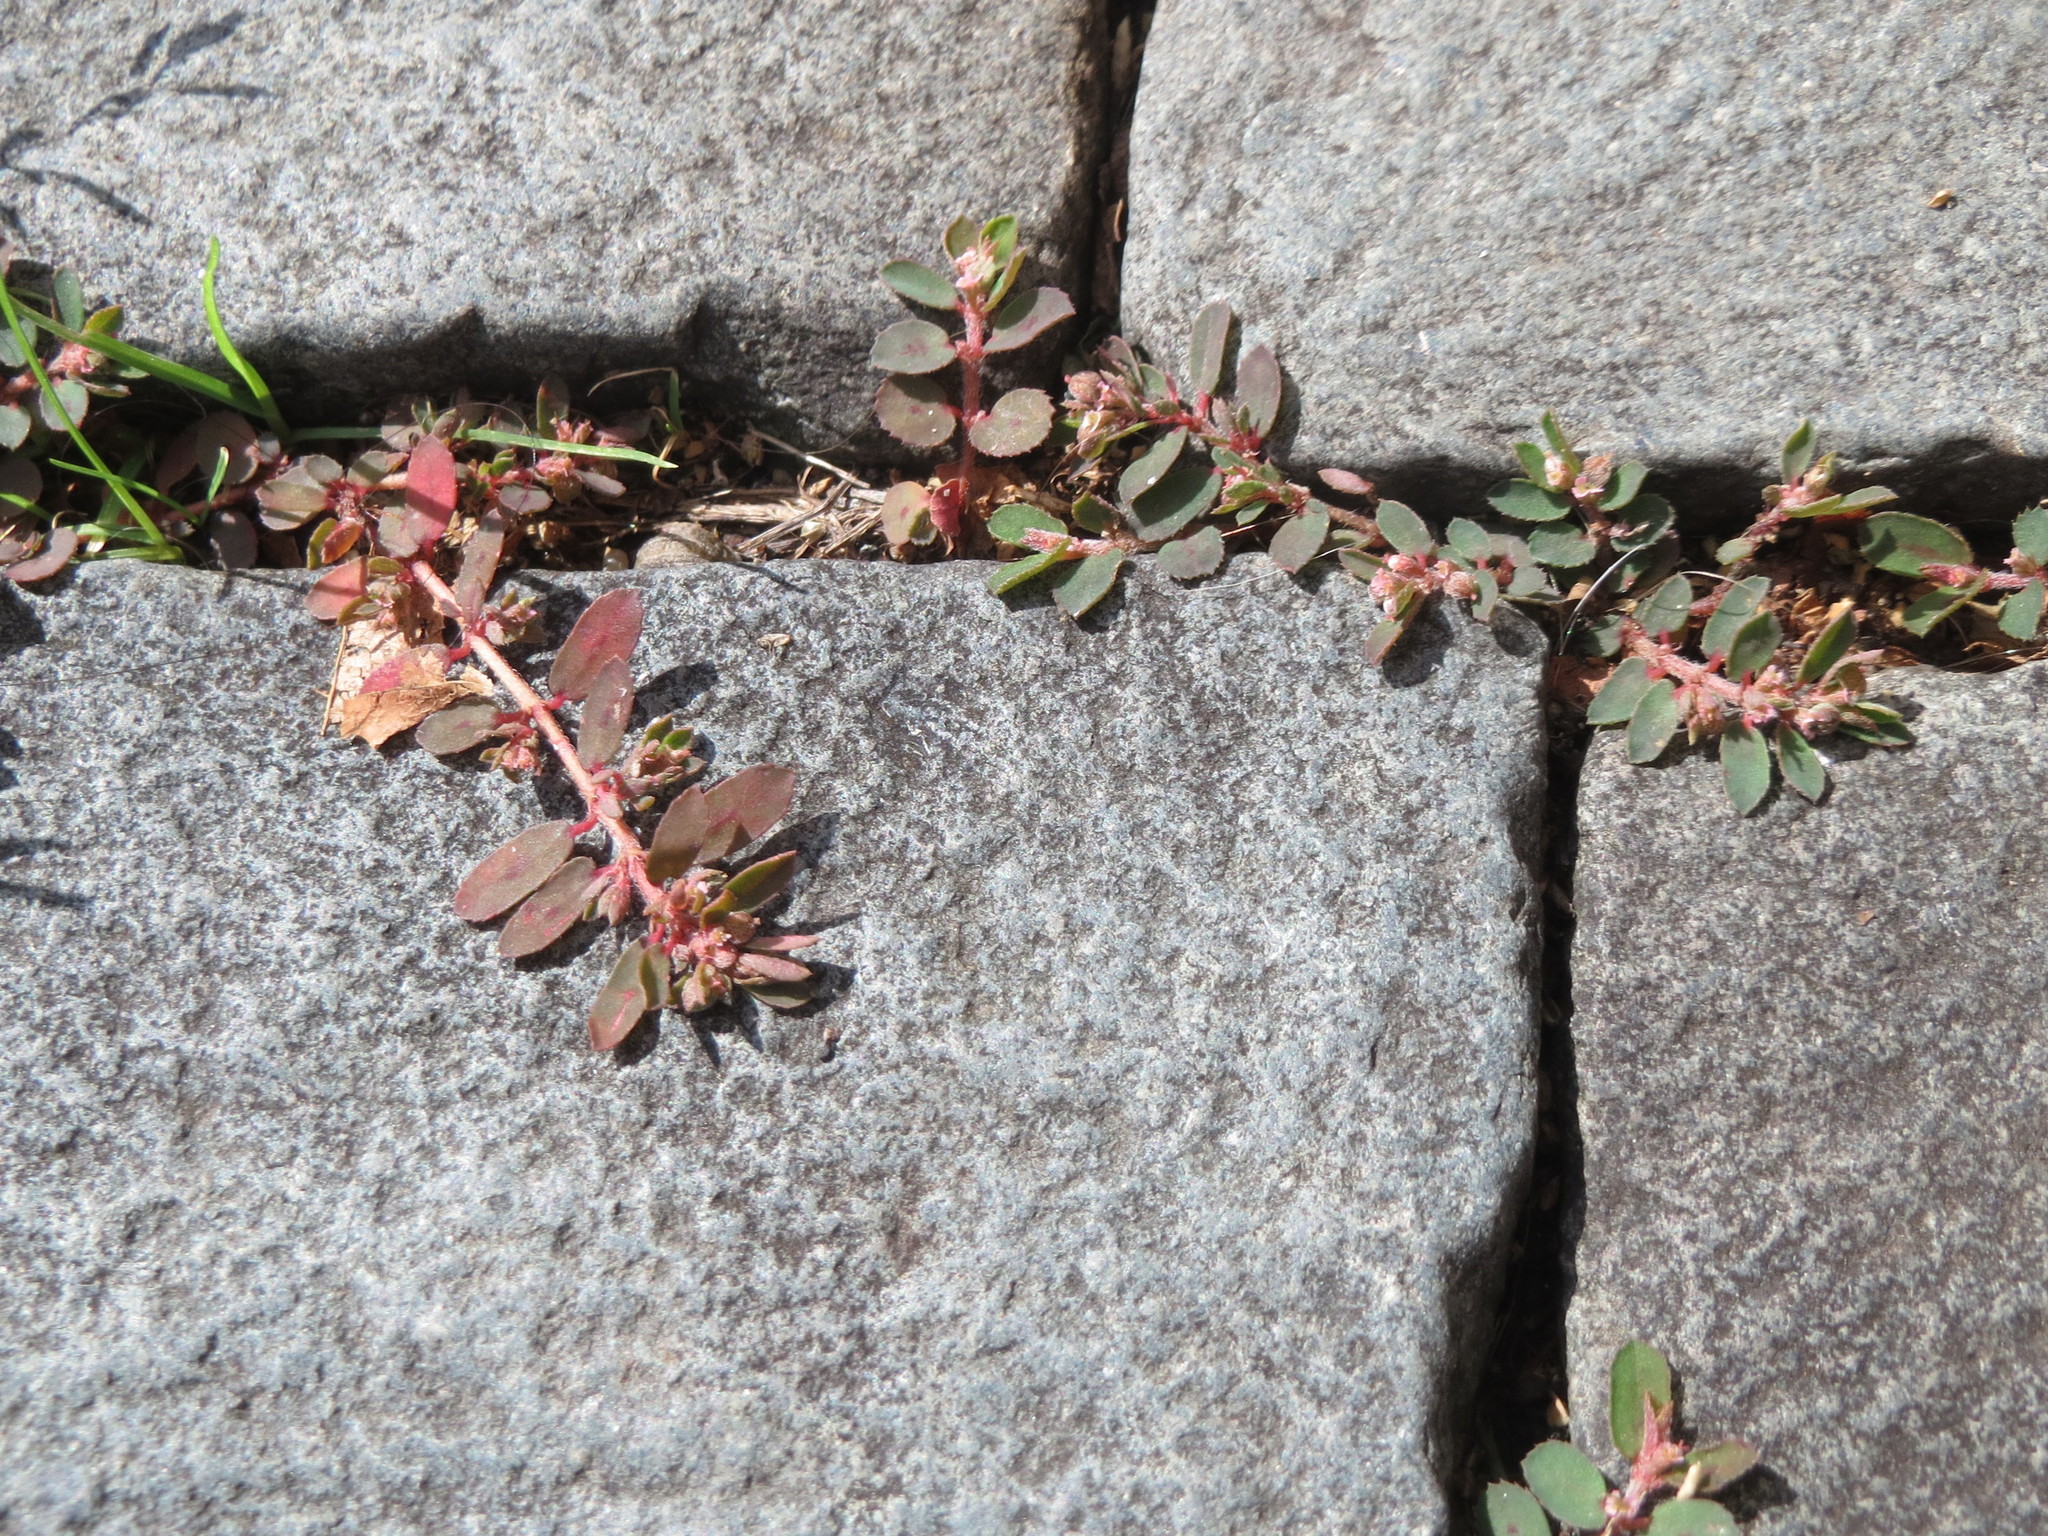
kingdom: Plantae
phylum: Tracheophyta
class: Magnoliopsida
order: Malpighiales
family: Euphorbiaceae
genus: Euphorbia
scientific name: Euphorbia maculata
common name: Spotted spurge
